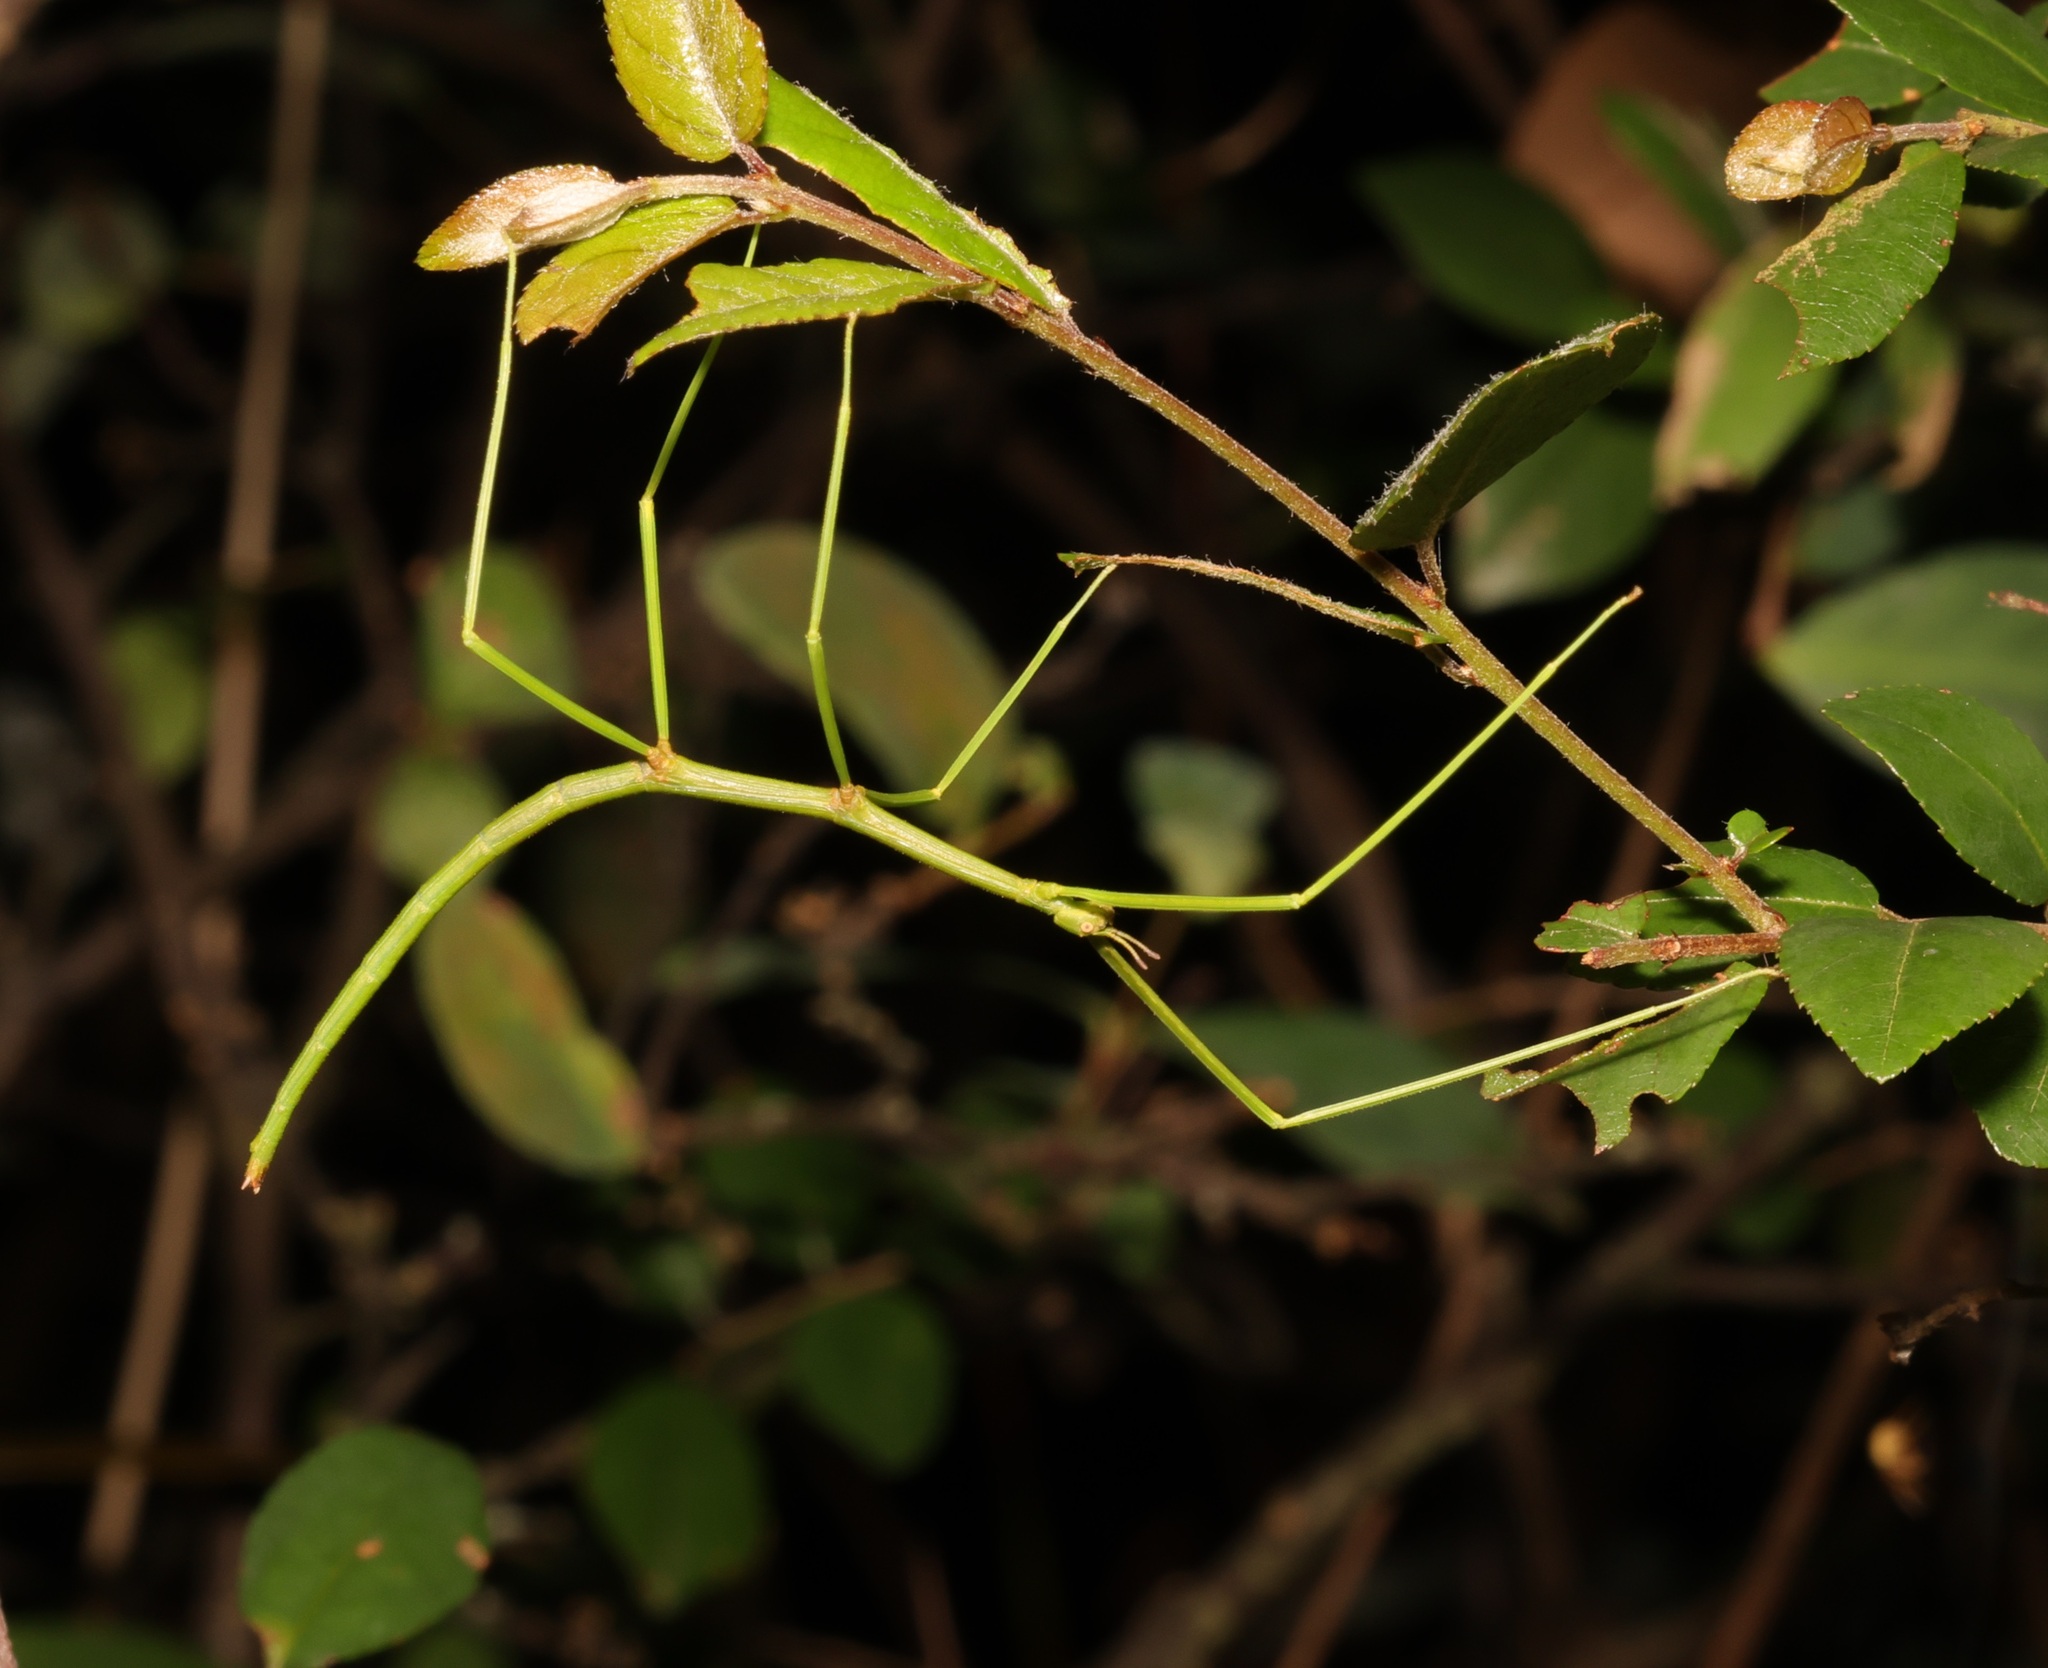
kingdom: Animalia
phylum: Arthropoda
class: Insecta
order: Phasmida
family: Phasmatidae
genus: Ramulus
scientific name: Ramulus rotundus
